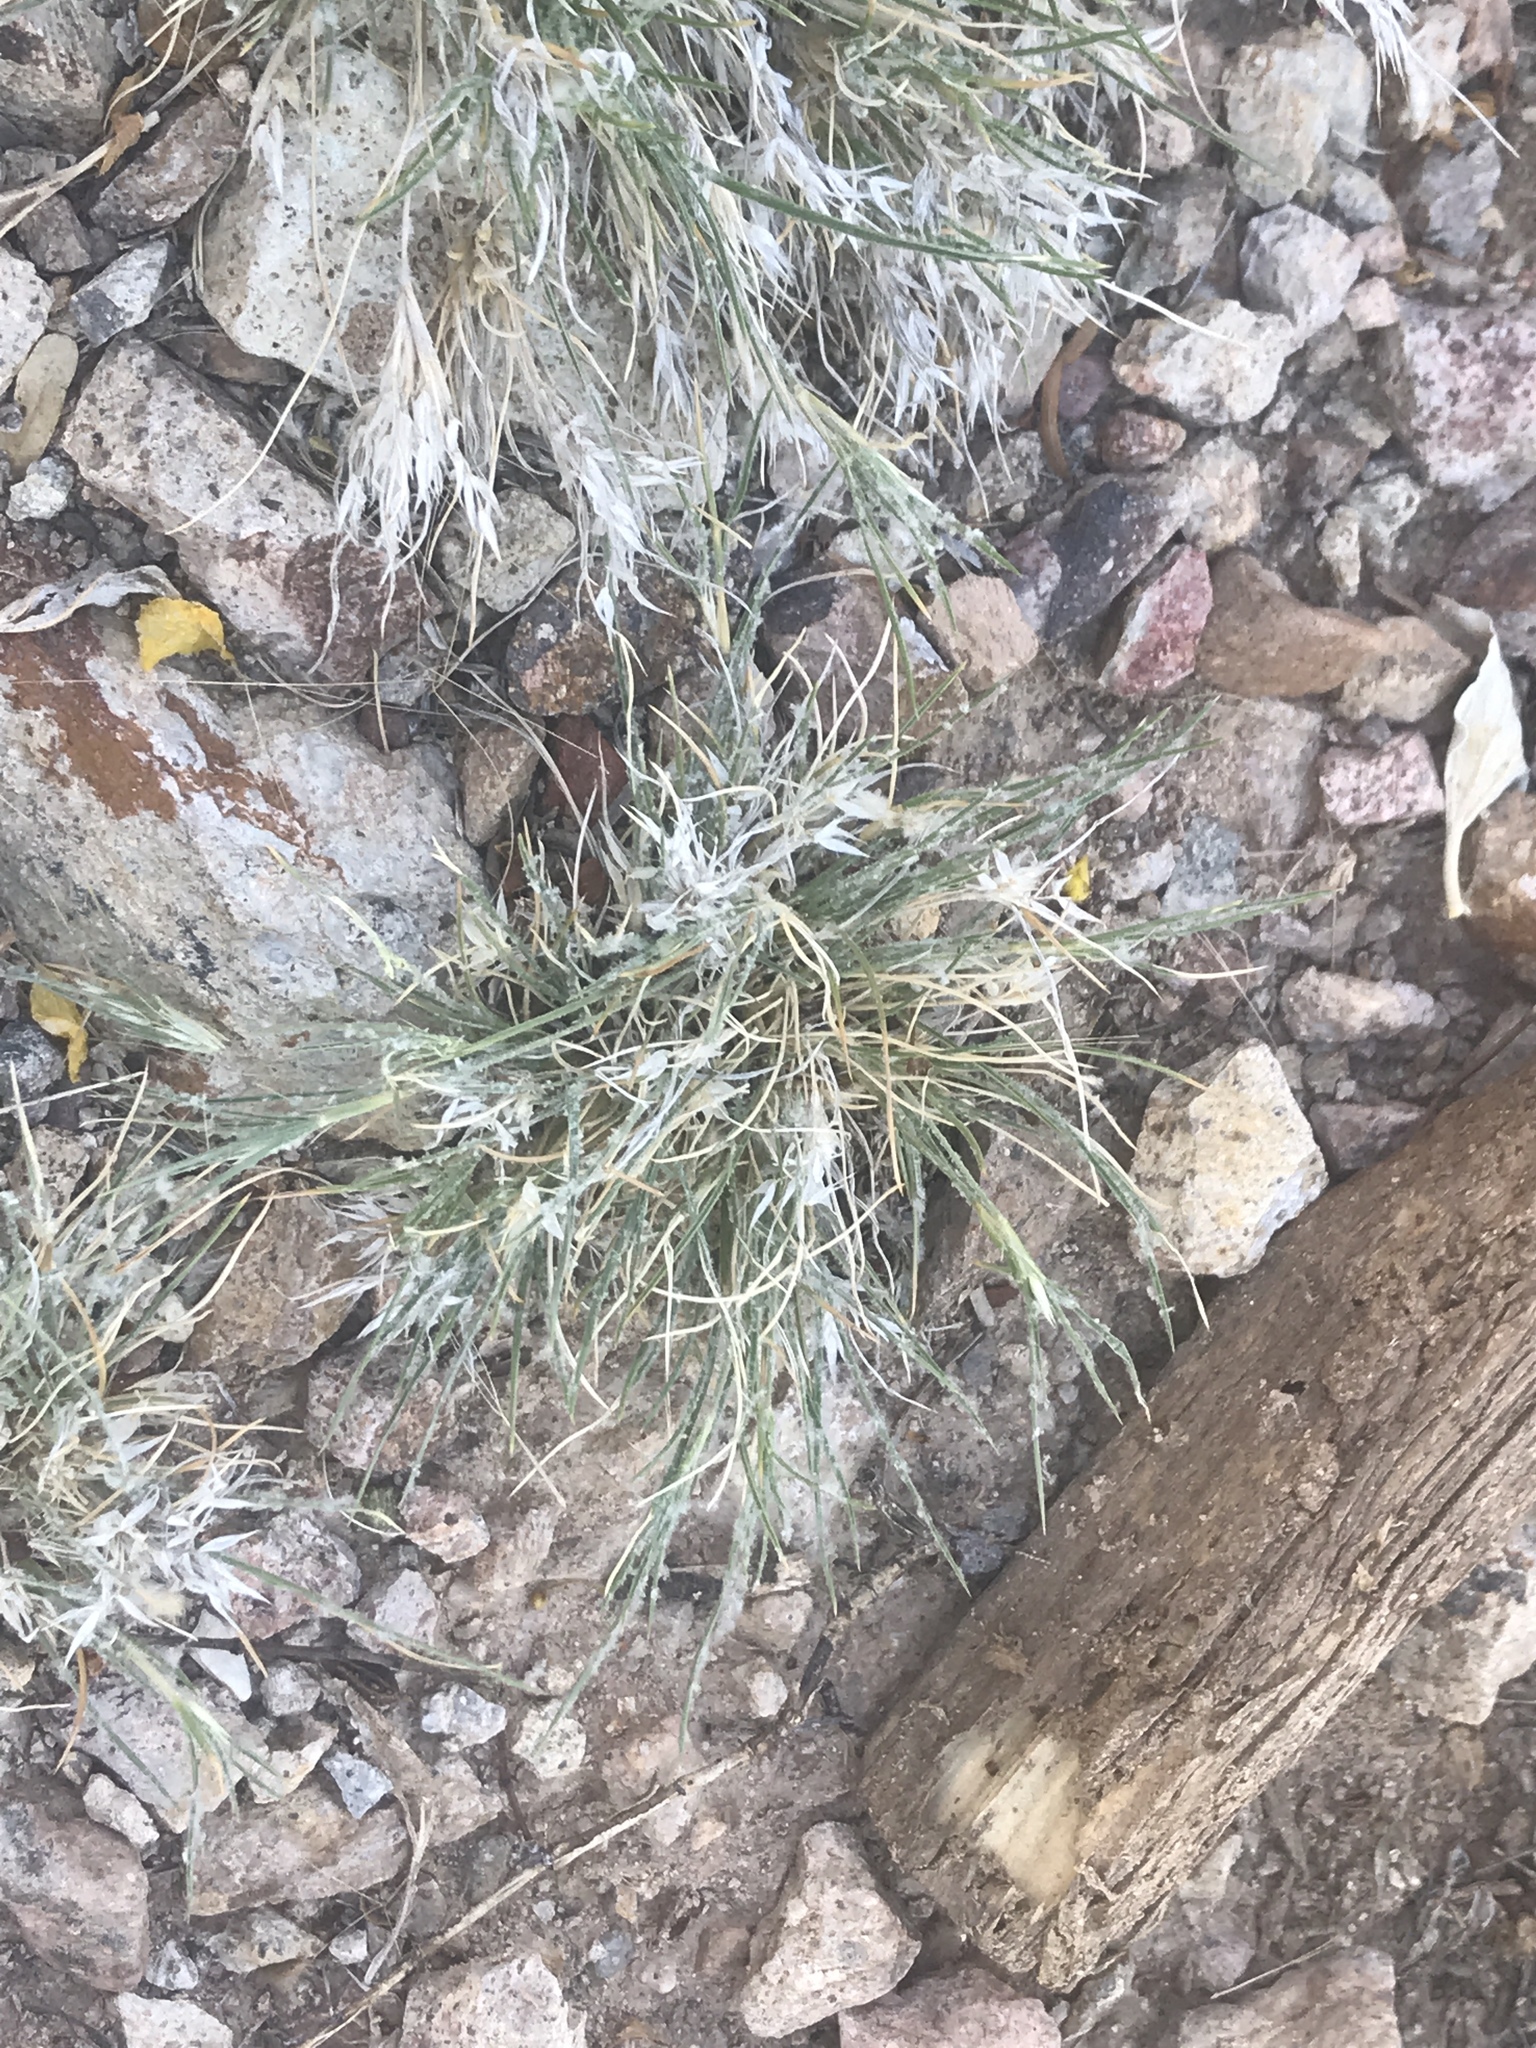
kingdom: Plantae
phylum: Tracheophyta
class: Liliopsida
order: Poales
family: Poaceae
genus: Dasyochloa
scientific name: Dasyochloa pulchella
